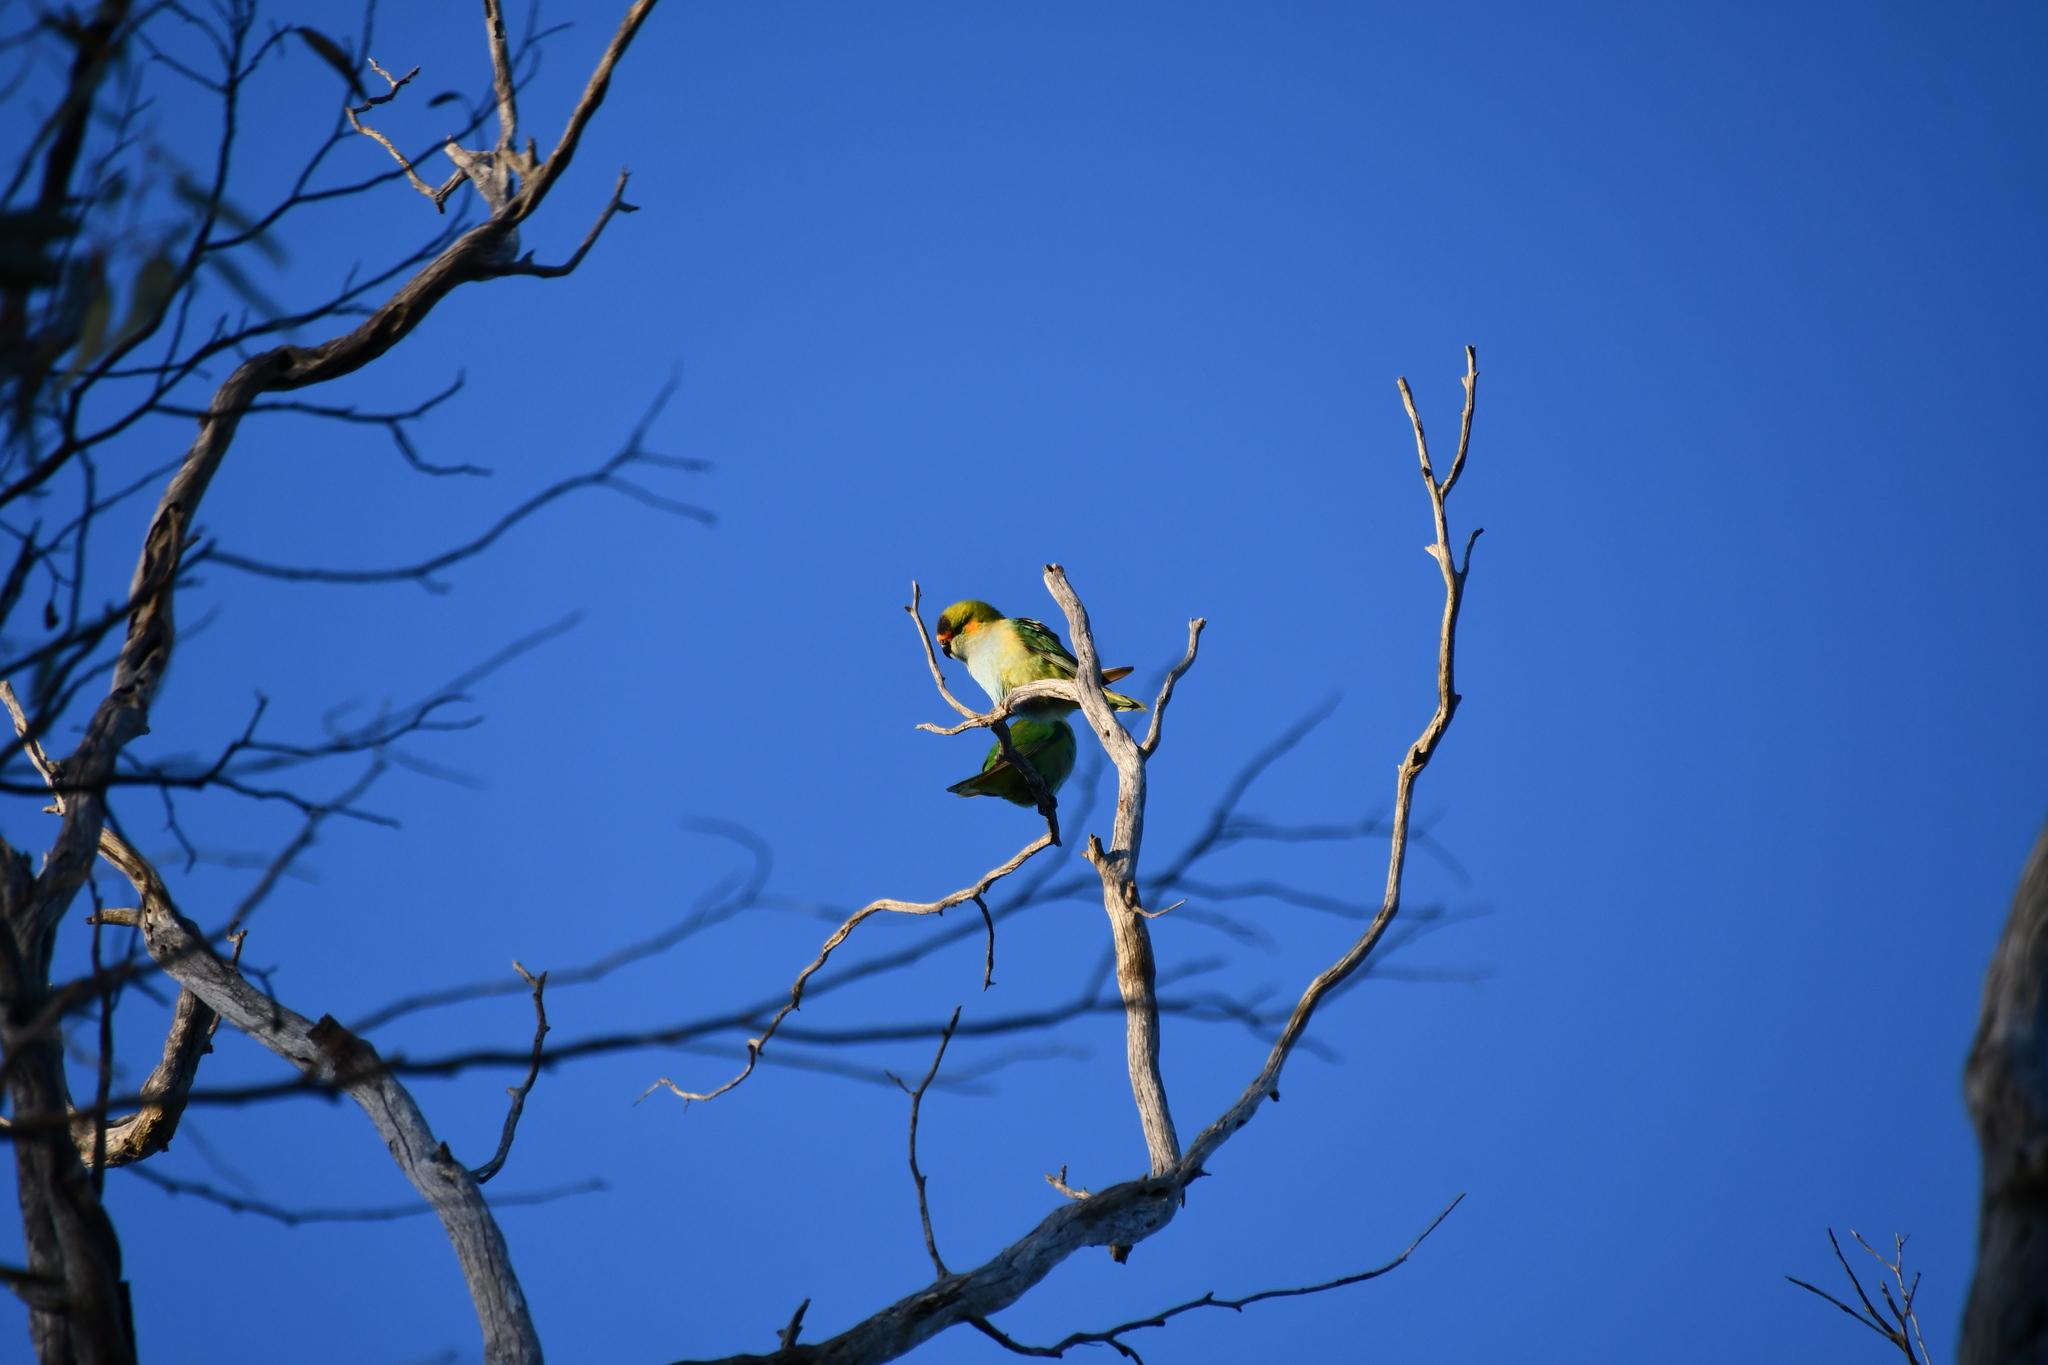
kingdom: Animalia
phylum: Chordata
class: Aves
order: Psittaciformes
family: Psittaculidae
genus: Parvipsitta
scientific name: Parvipsitta porphyrocephala
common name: Purple-crowned lorikeet
